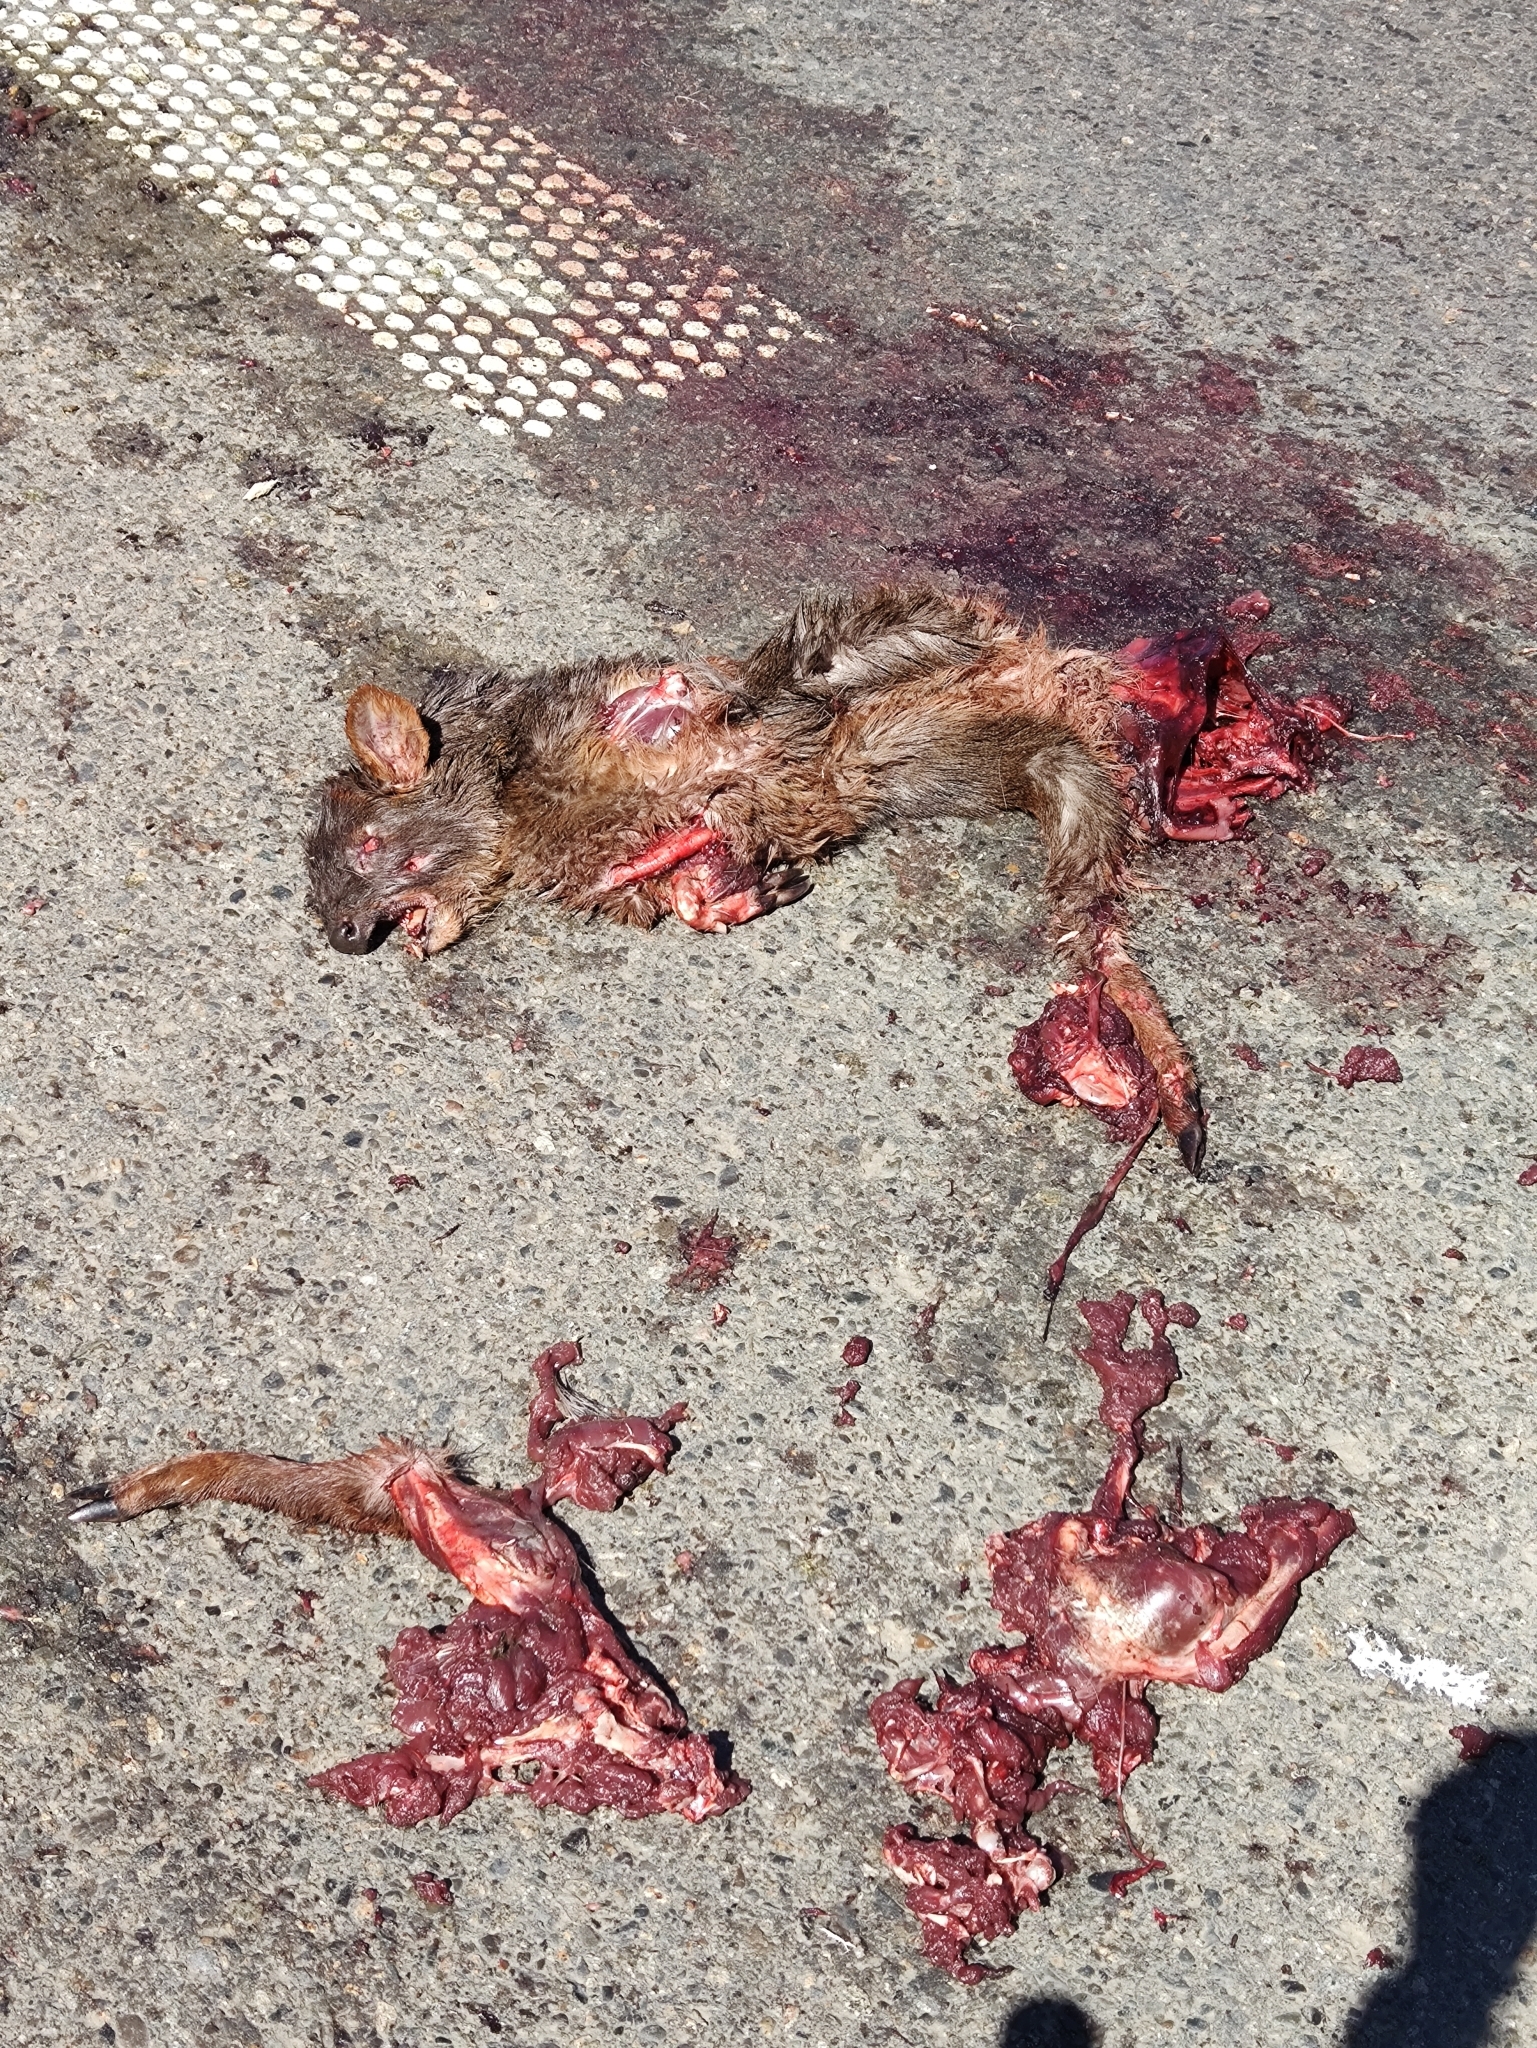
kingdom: Animalia
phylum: Chordata
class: Mammalia
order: Artiodactyla
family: Cervidae
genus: Pudu
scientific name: Pudu puda
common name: Southern pudu
